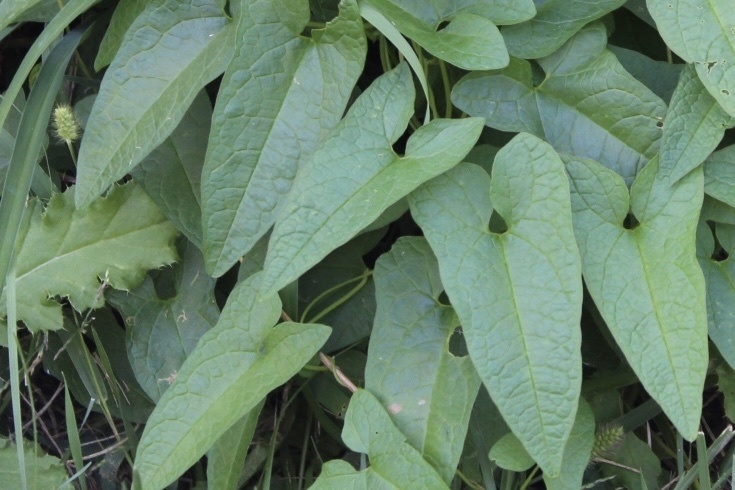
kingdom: Plantae
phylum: Tracheophyta
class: Magnoliopsida
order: Solanales
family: Convolvulaceae
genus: Calystegia
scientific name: Calystegia silvatica
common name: Large bindweed
